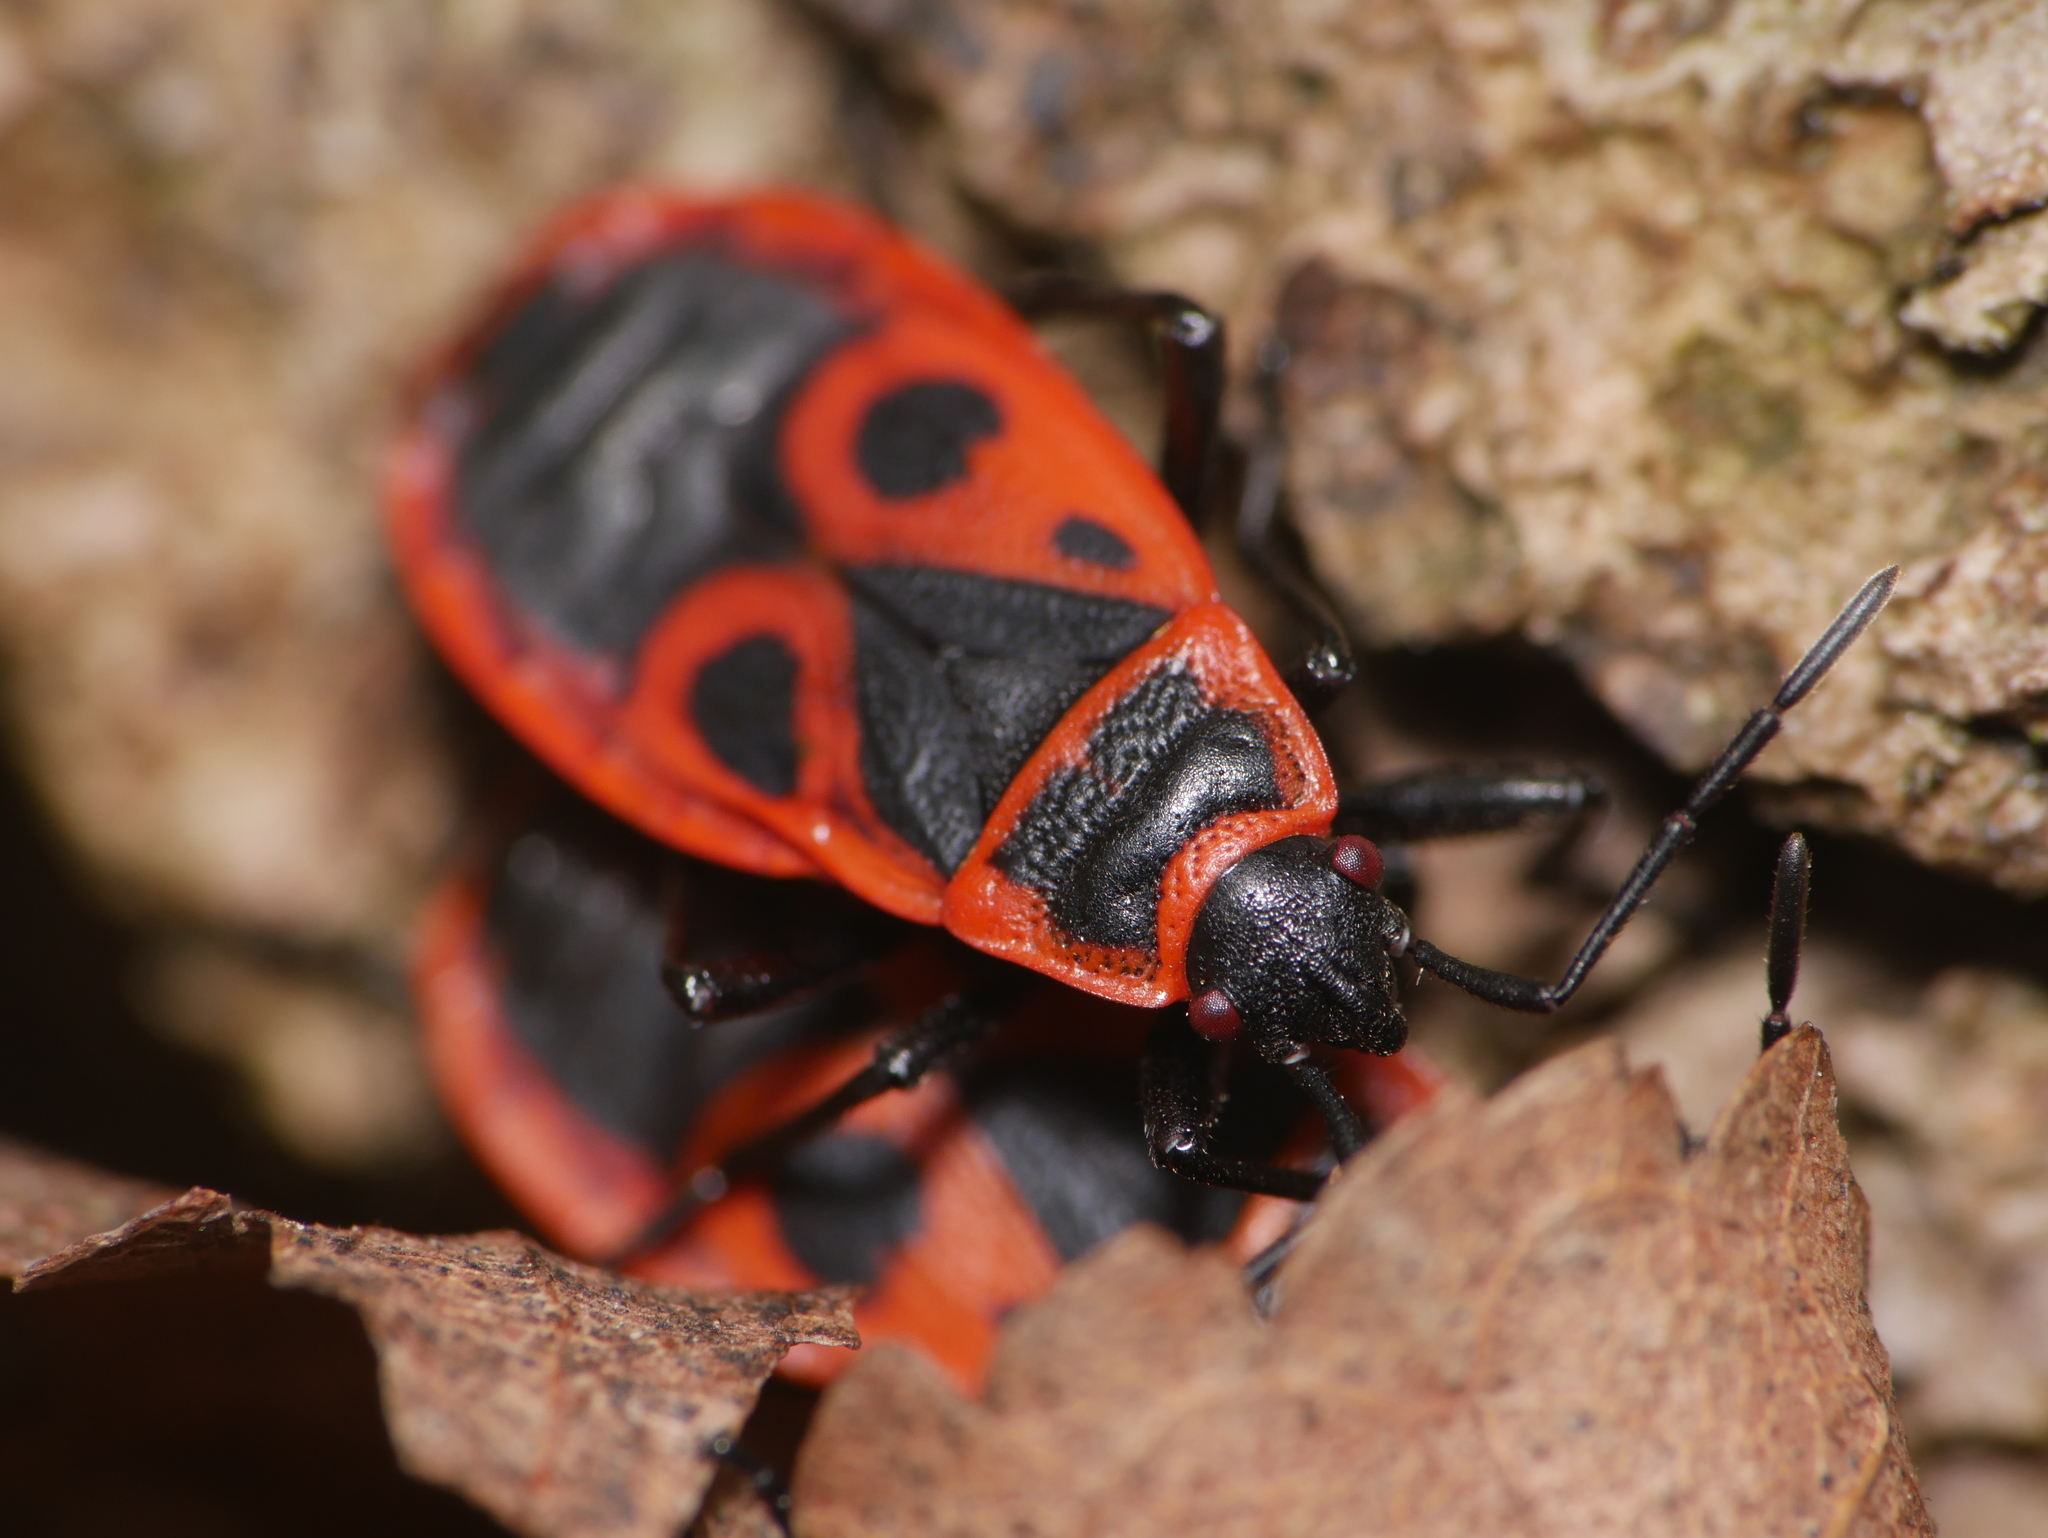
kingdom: Animalia
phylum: Arthropoda
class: Insecta
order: Hemiptera
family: Pyrrhocoridae
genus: Pyrrhocoris
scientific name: Pyrrhocoris apterus
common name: Firebug
